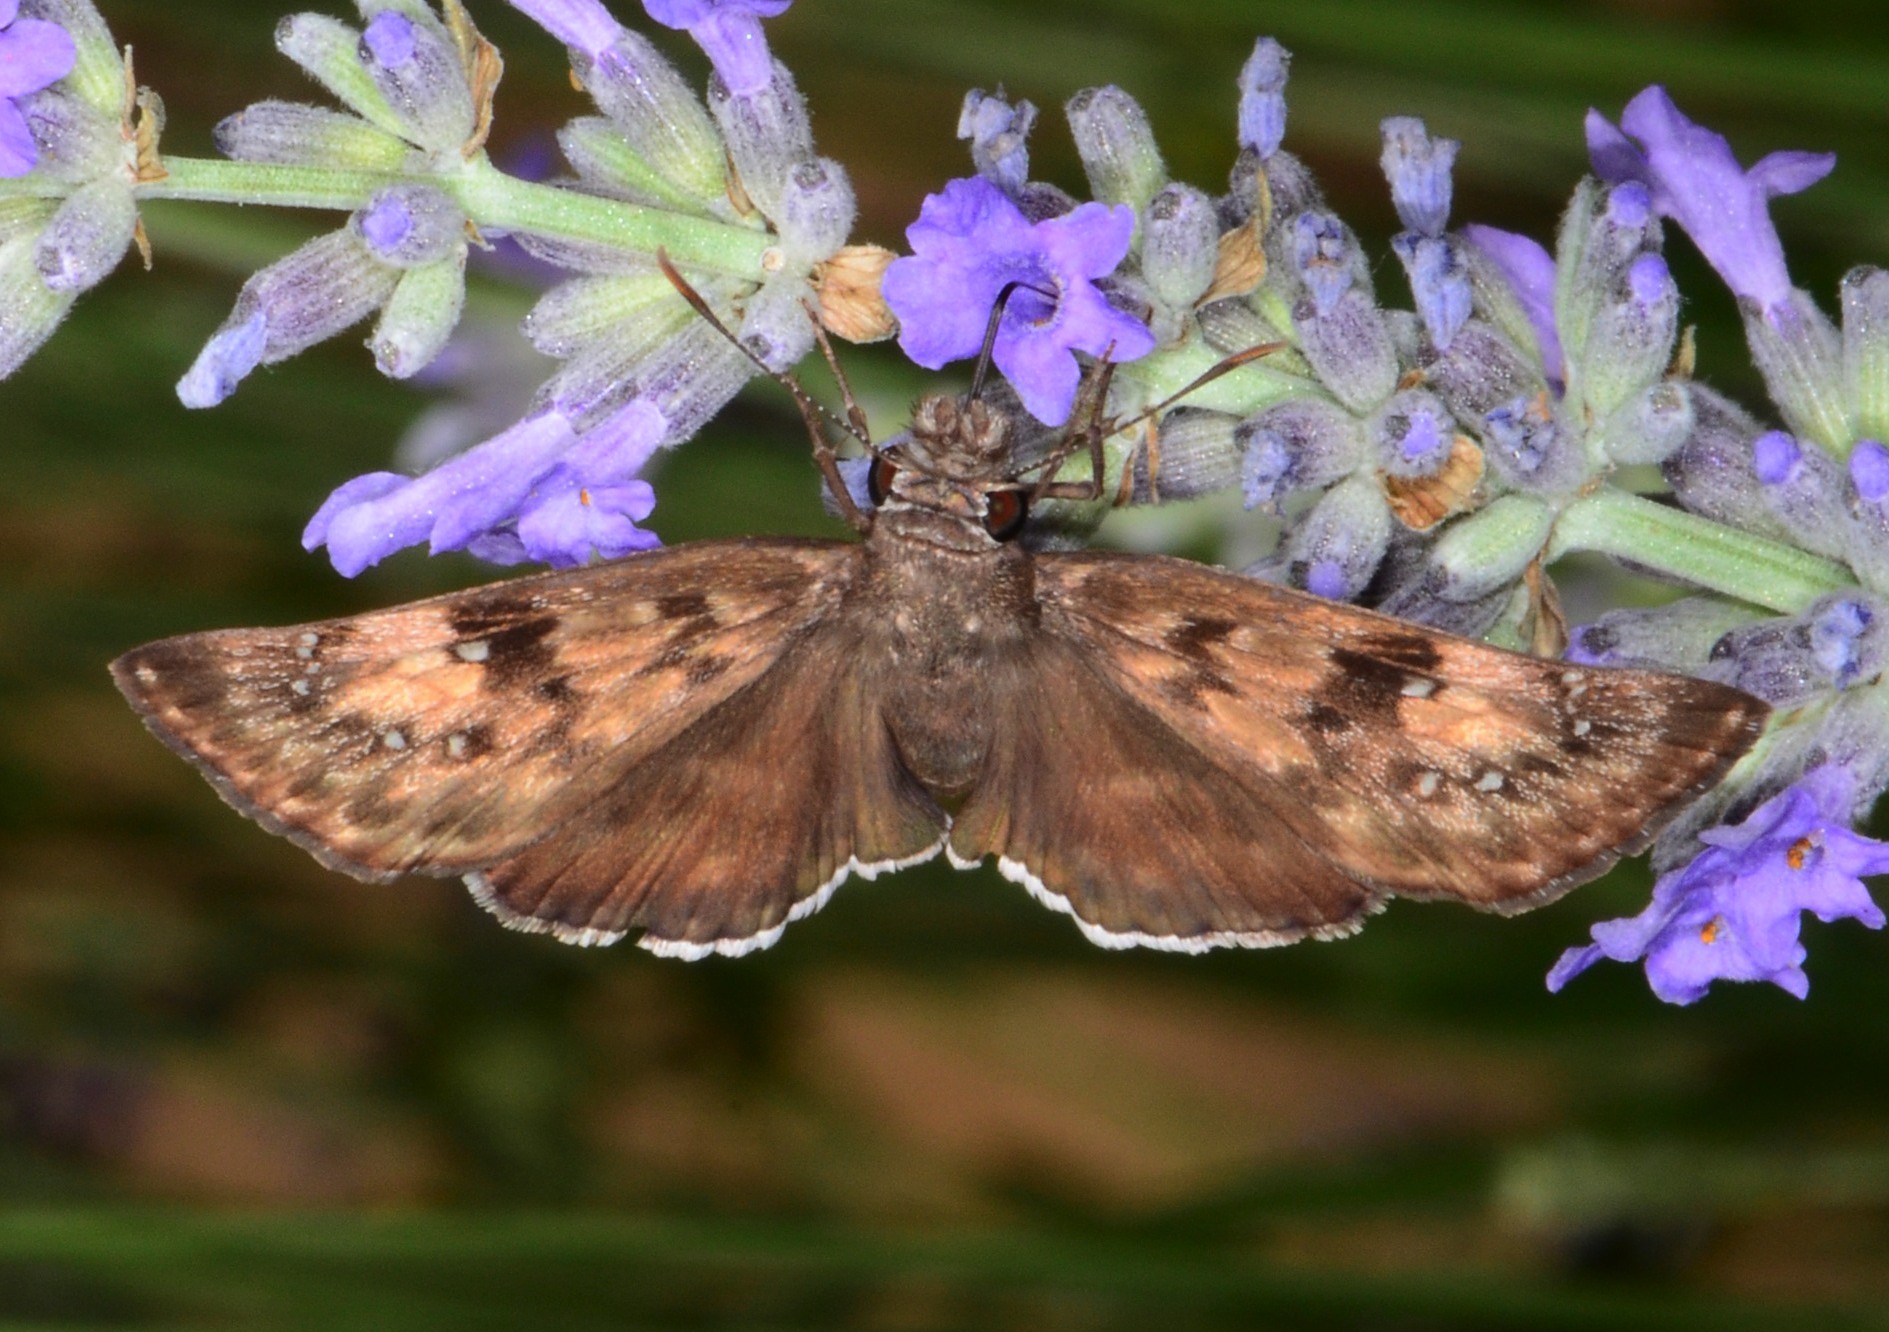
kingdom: Animalia
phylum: Arthropoda
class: Insecta
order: Lepidoptera
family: Hesperiidae
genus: Erynnis
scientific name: Erynnis tristis
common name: Mournful duskywing
